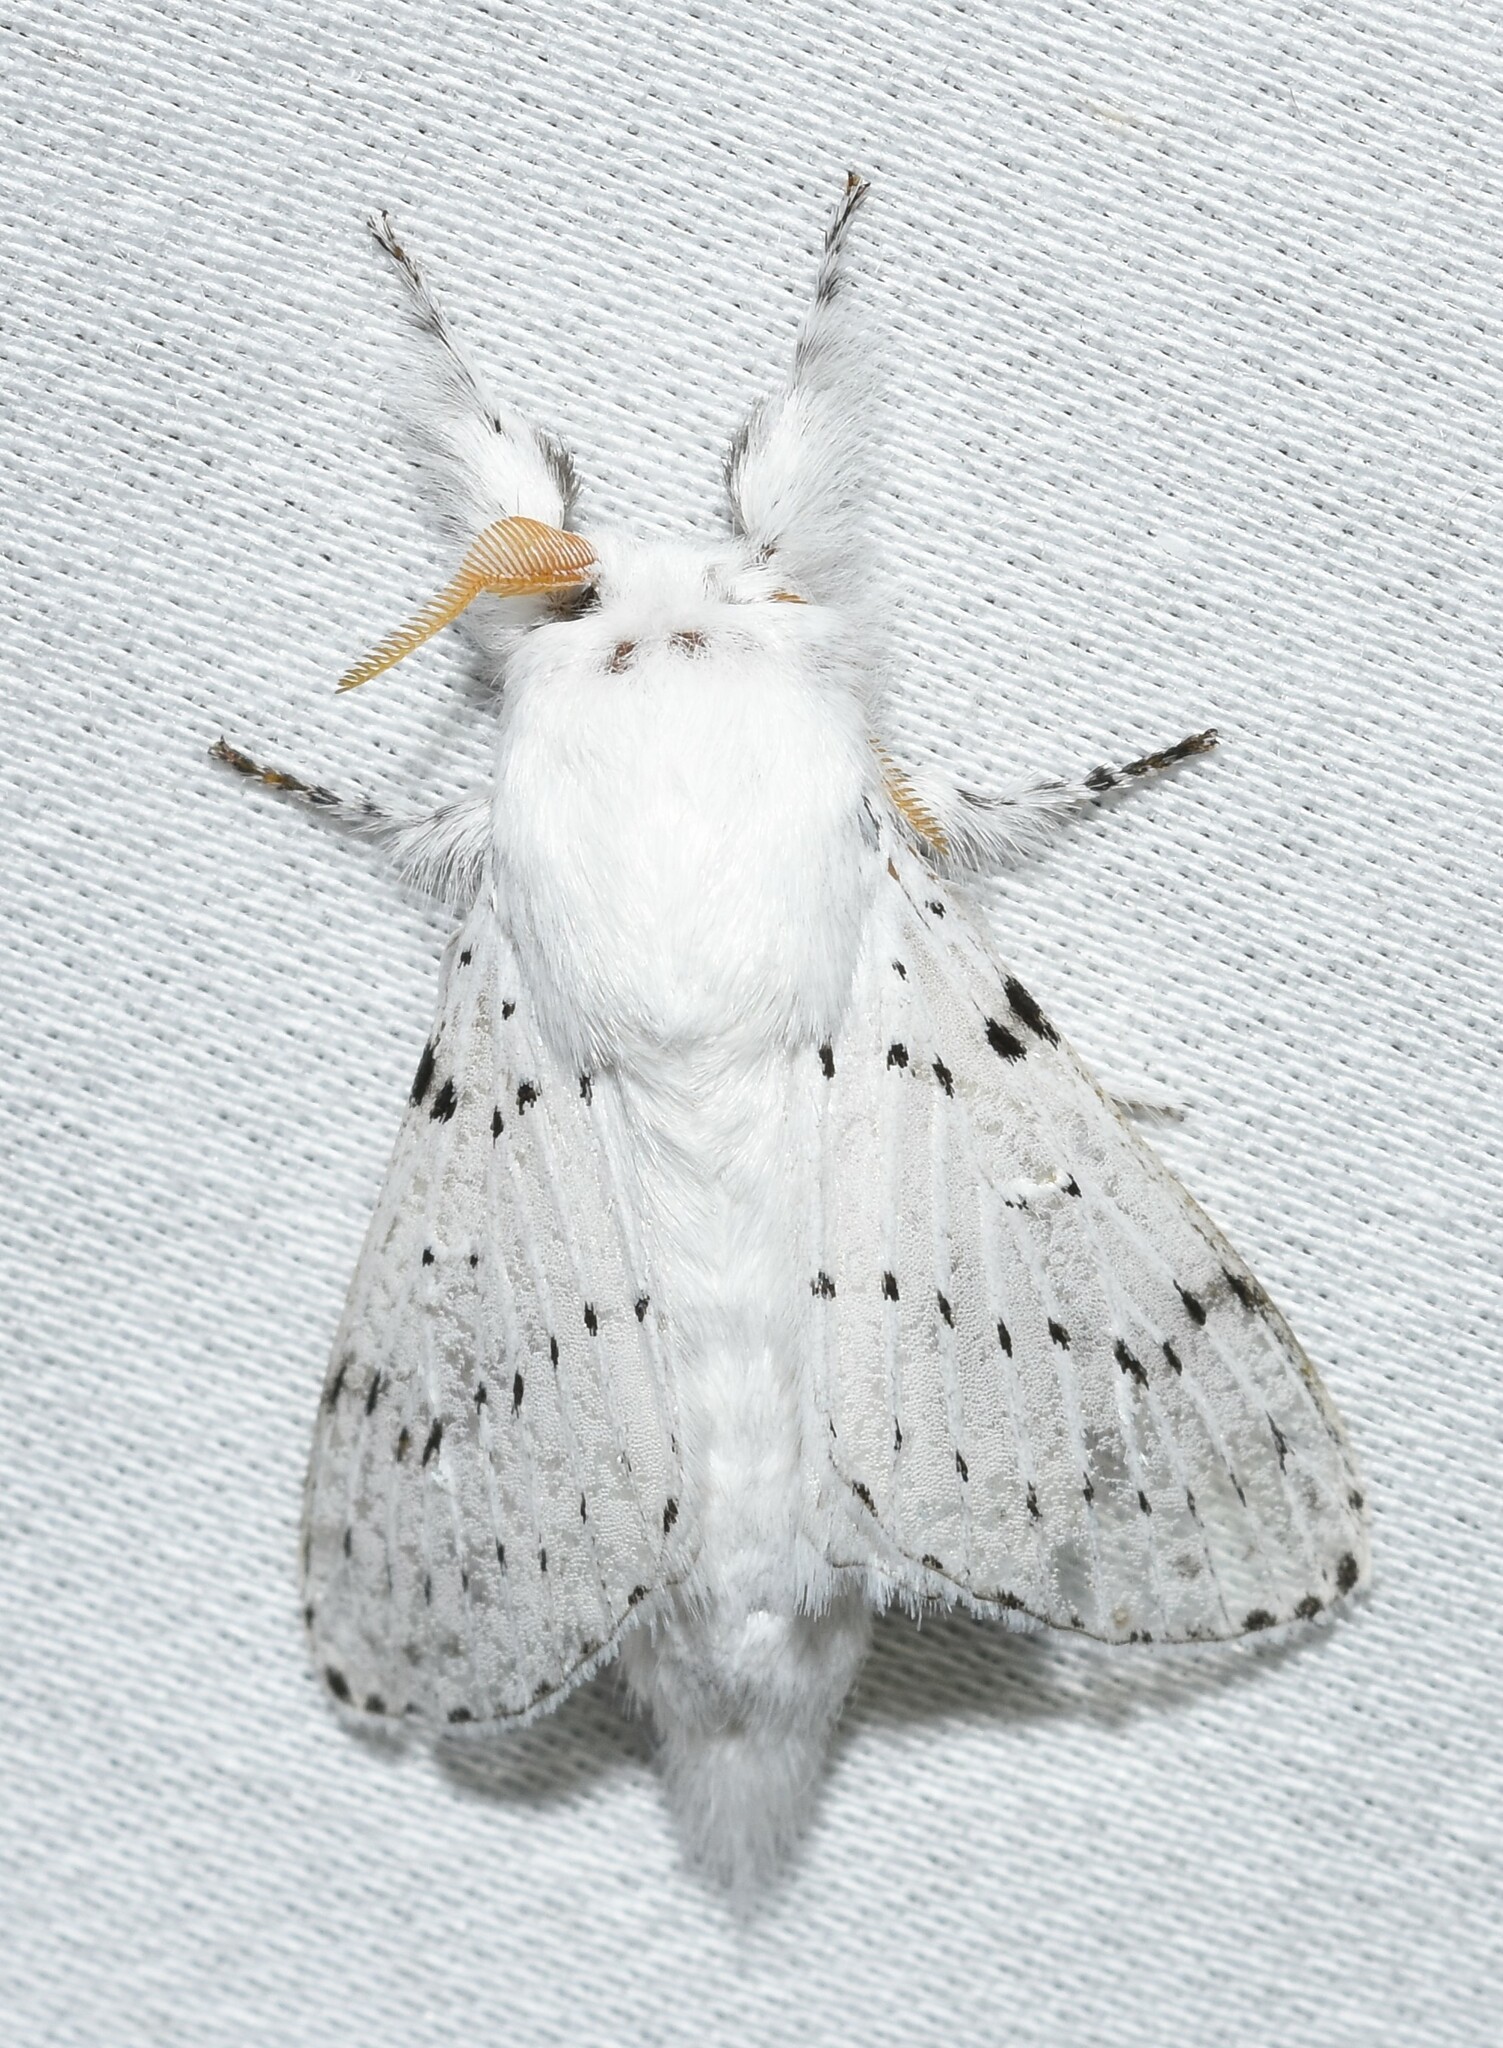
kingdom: Animalia
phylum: Arthropoda
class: Insecta
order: Lepidoptera
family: Lasiocampidae
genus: Artace
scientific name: Artace cribrarius
